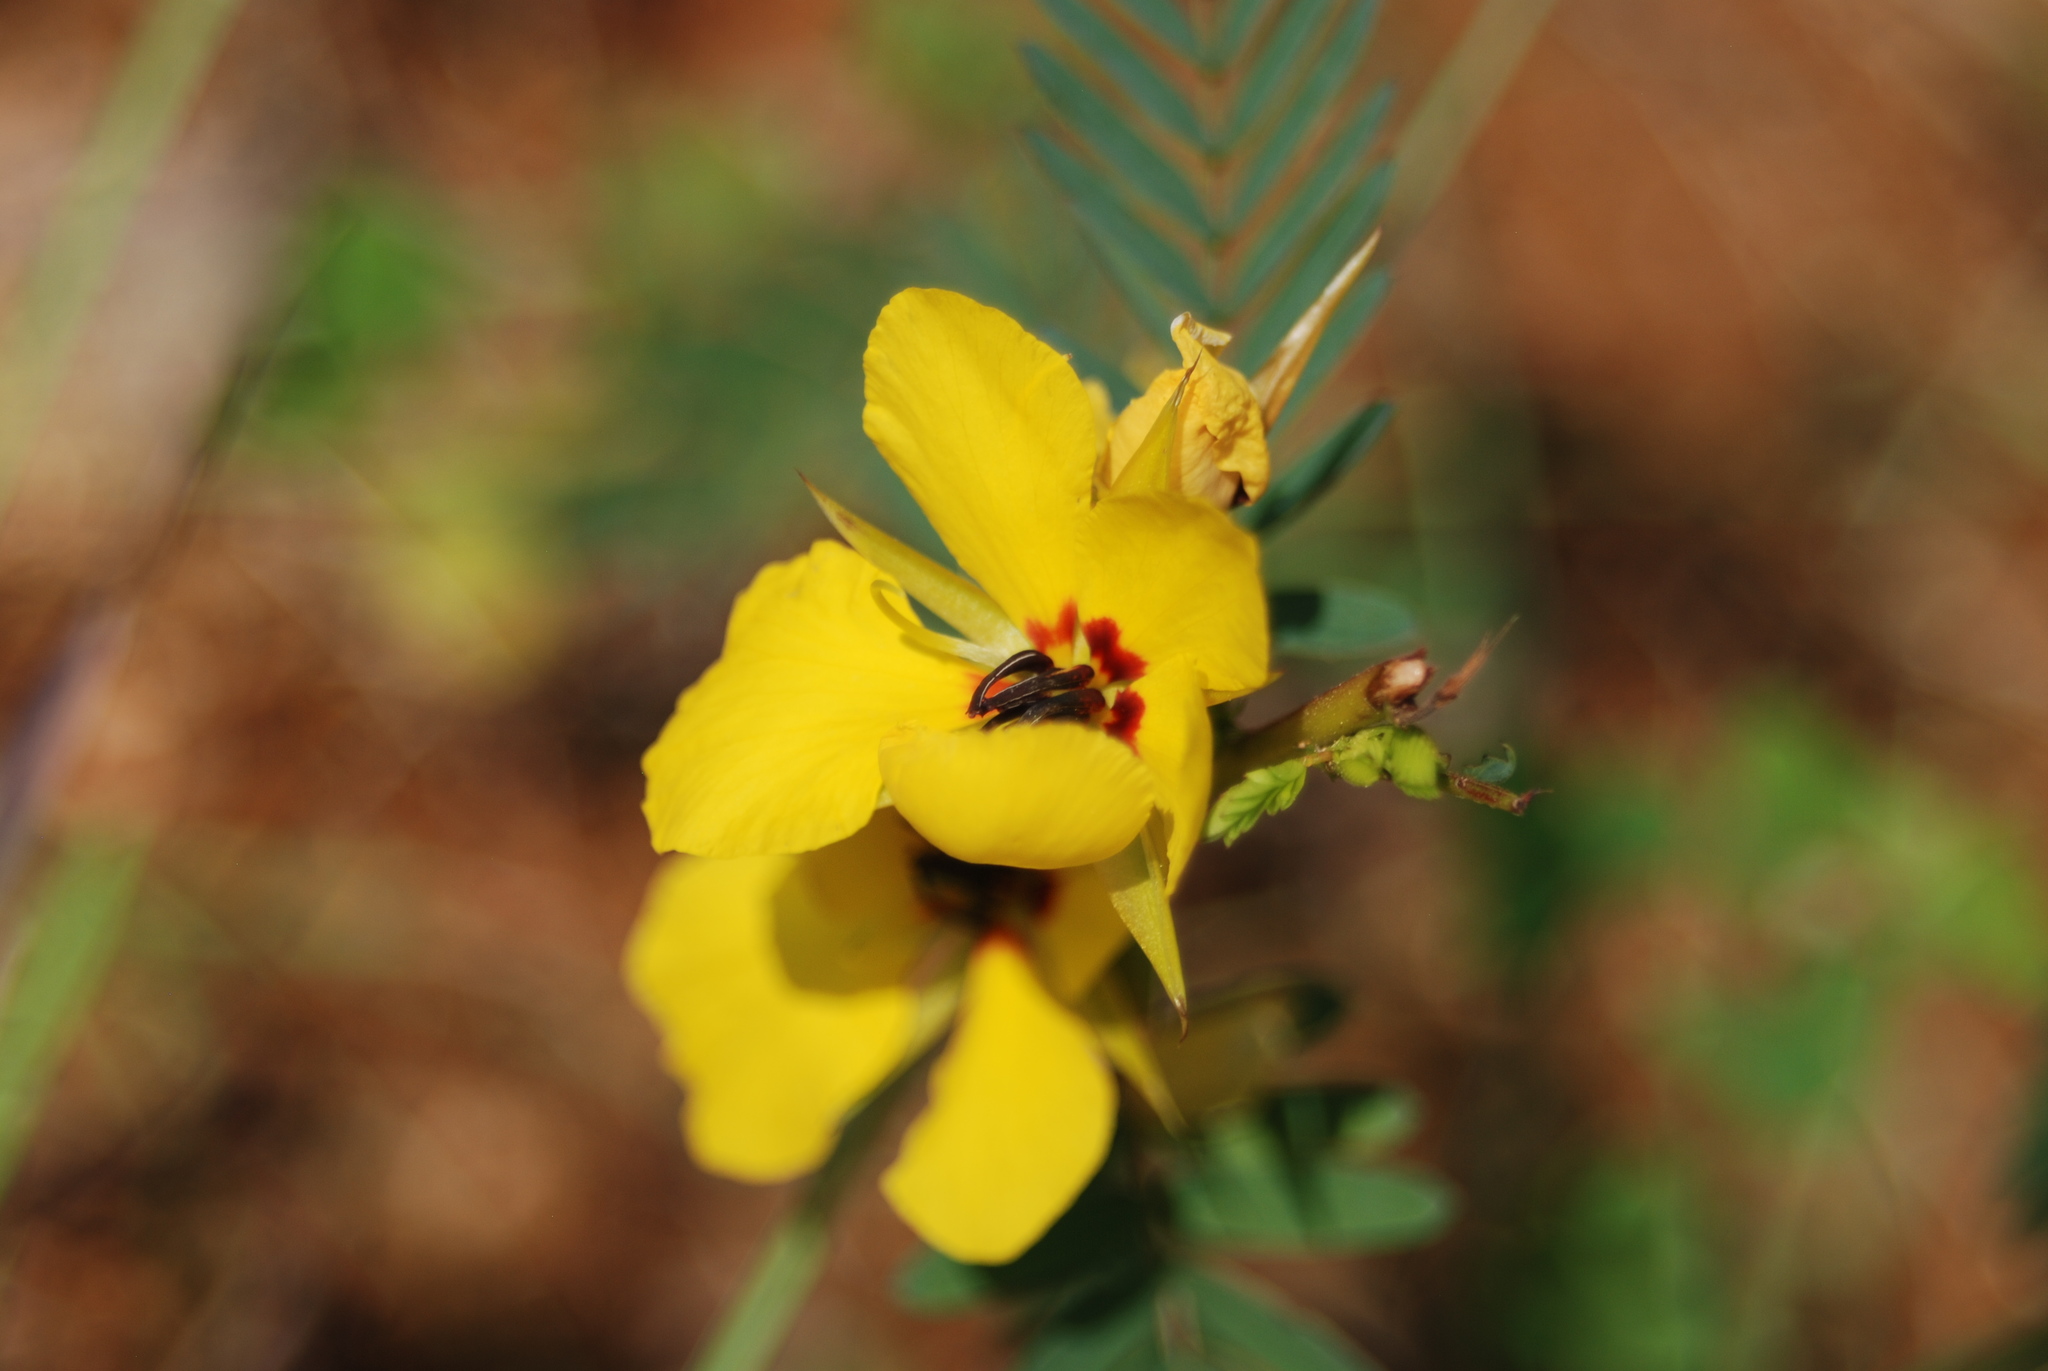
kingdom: Plantae
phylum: Tracheophyta
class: Magnoliopsida
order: Fabales
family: Fabaceae
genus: Chamaecrista
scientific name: Chamaecrista fasciculata
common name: Golden cassia
